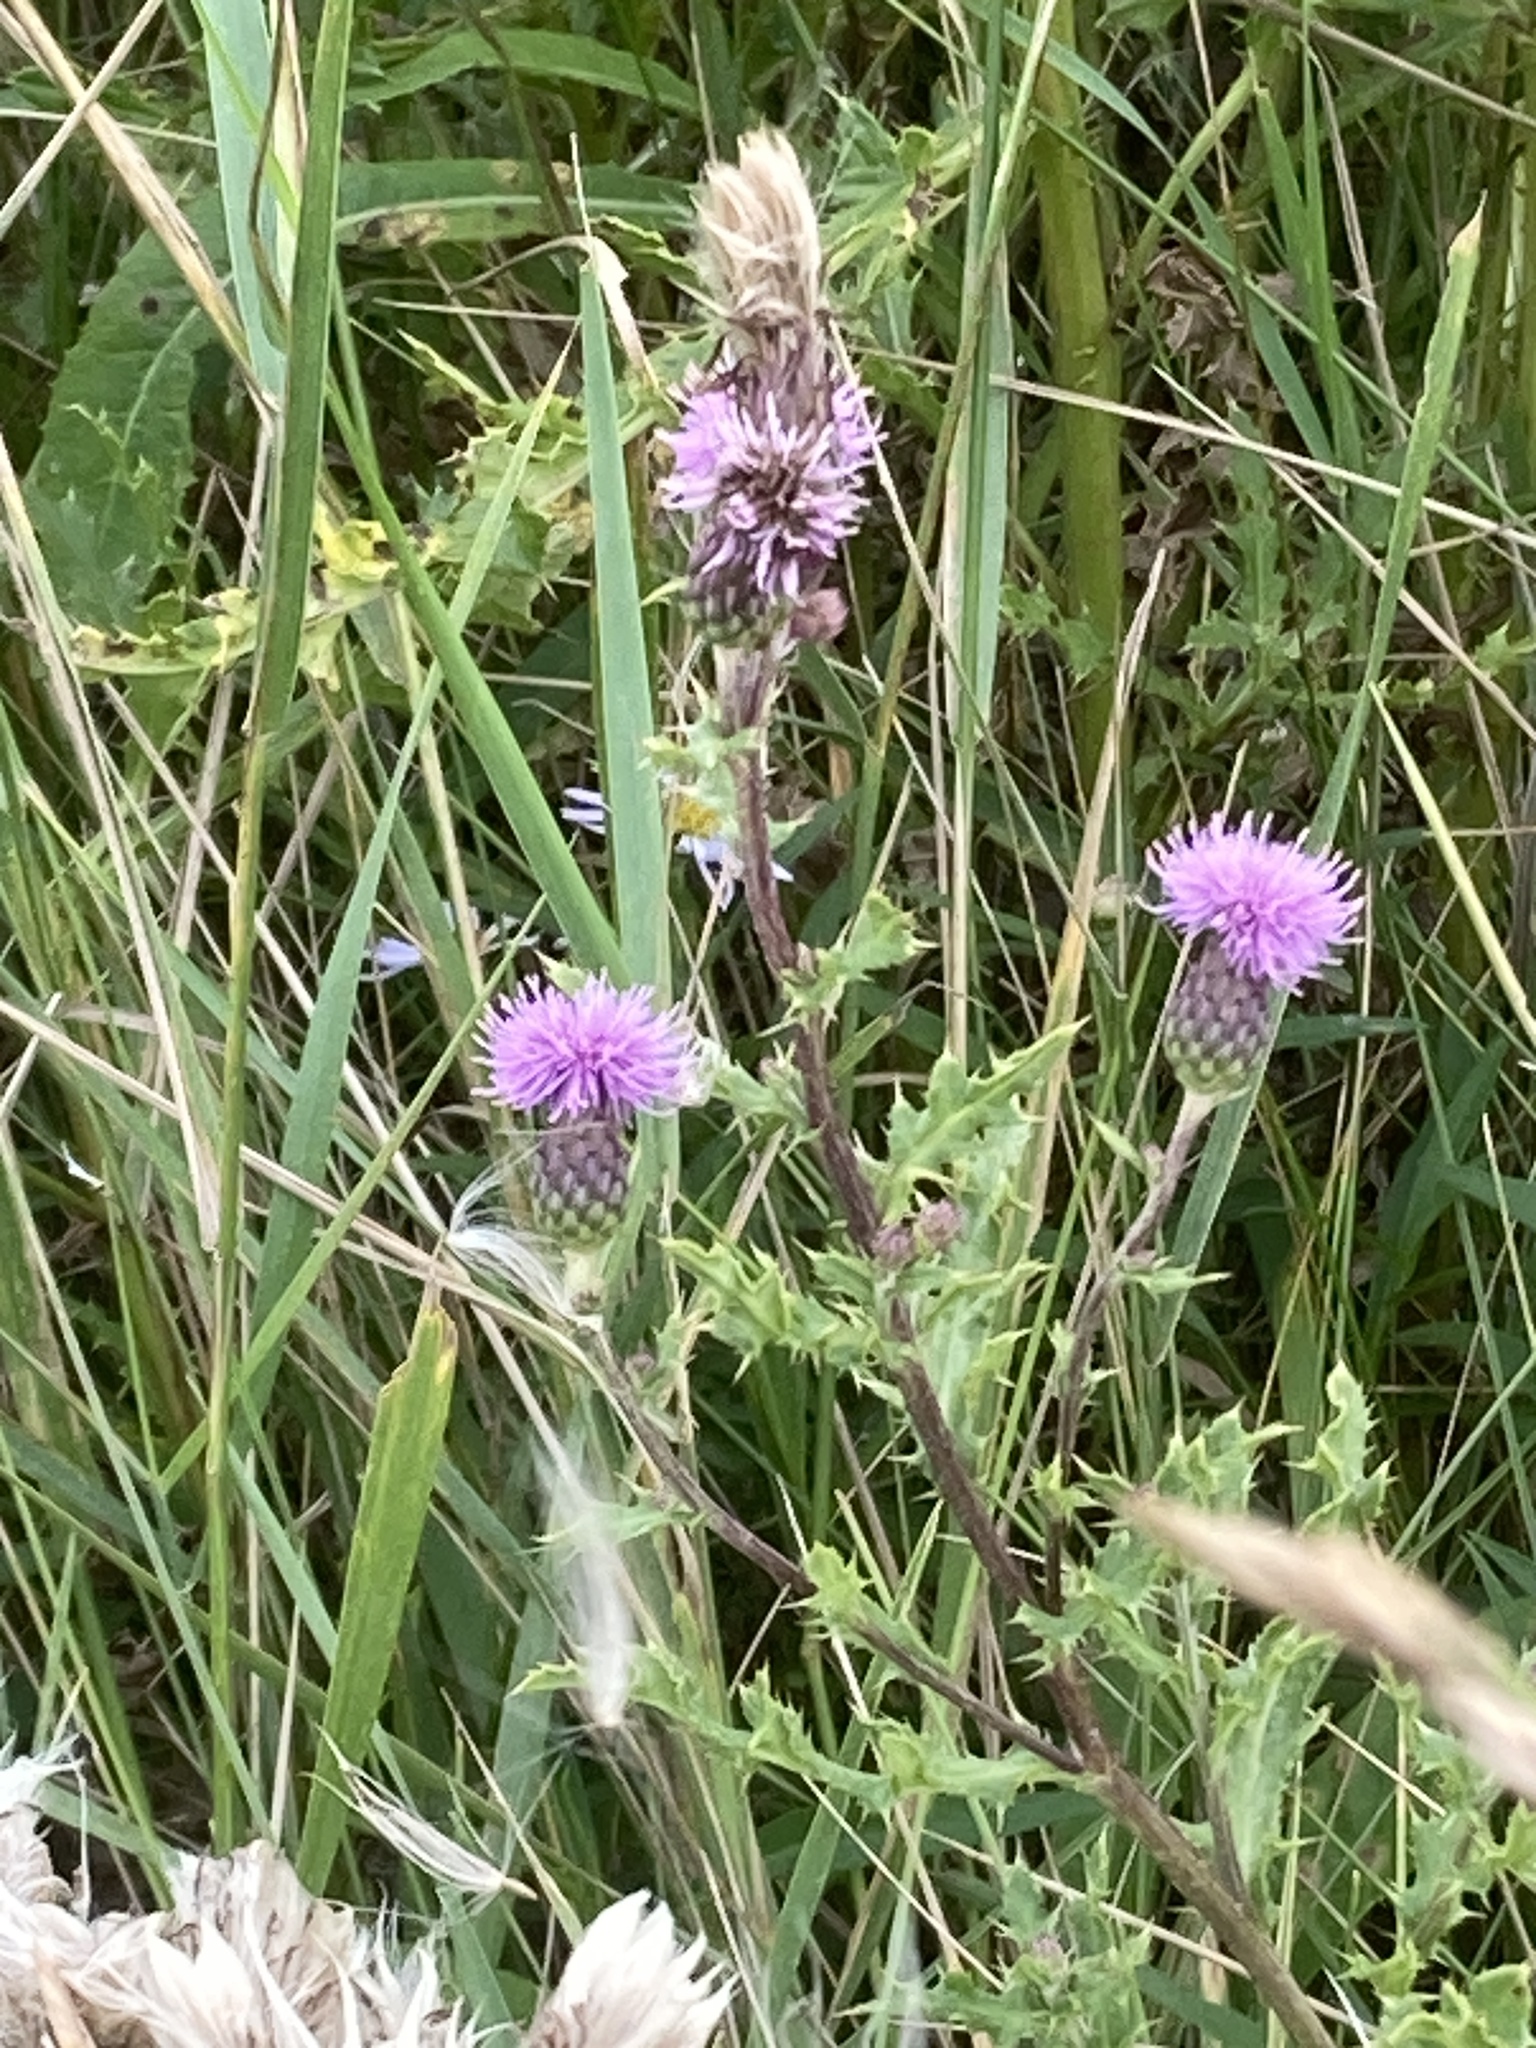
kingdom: Plantae
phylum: Tracheophyta
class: Magnoliopsida
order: Asterales
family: Asteraceae
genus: Cirsium
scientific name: Cirsium arvense
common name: Creeping thistle
